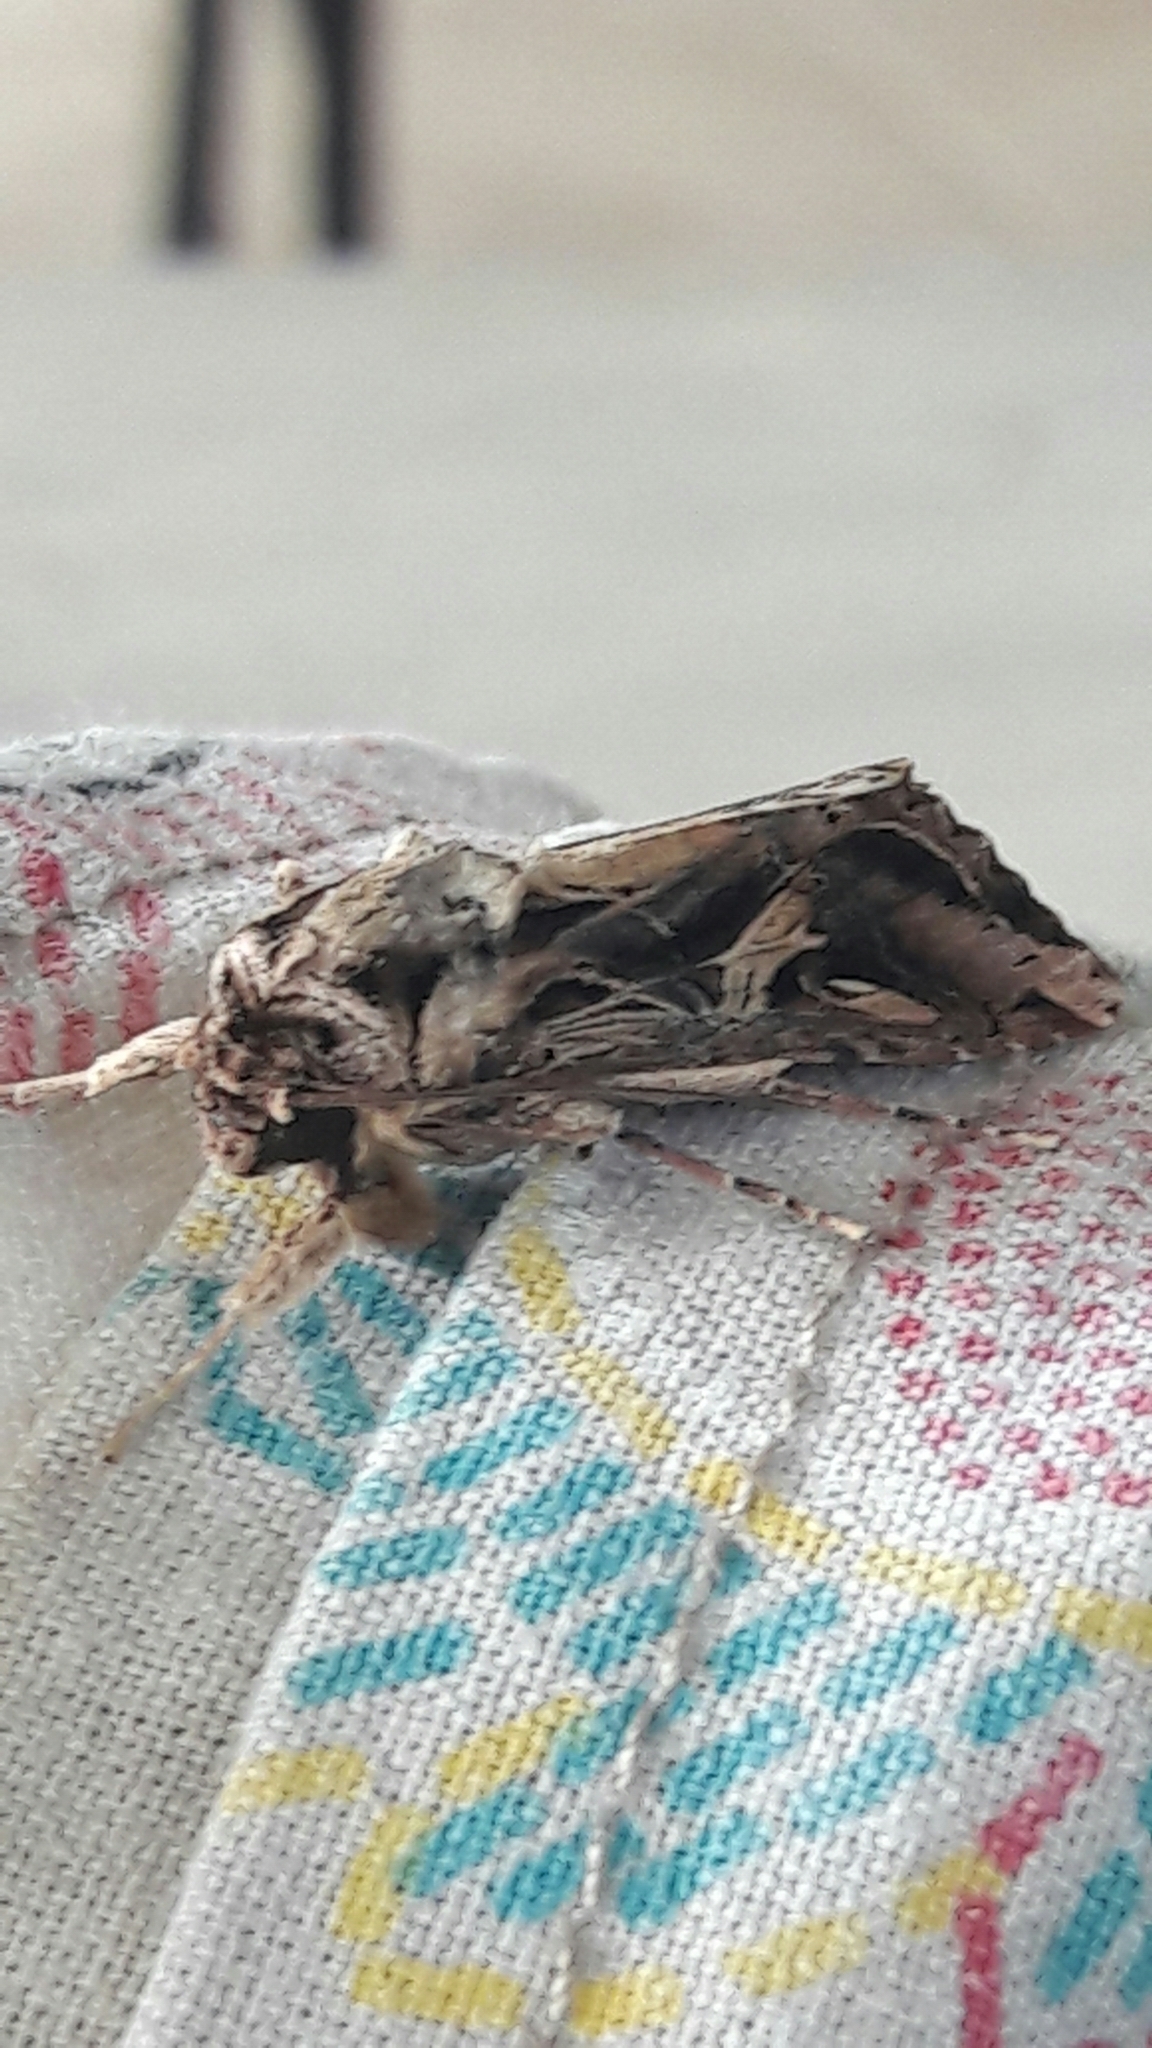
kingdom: Animalia
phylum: Arthropoda
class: Insecta
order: Lepidoptera
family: Noctuidae
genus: Spodoptera
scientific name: Spodoptera dolichos
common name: Sweetpotato armyworm
